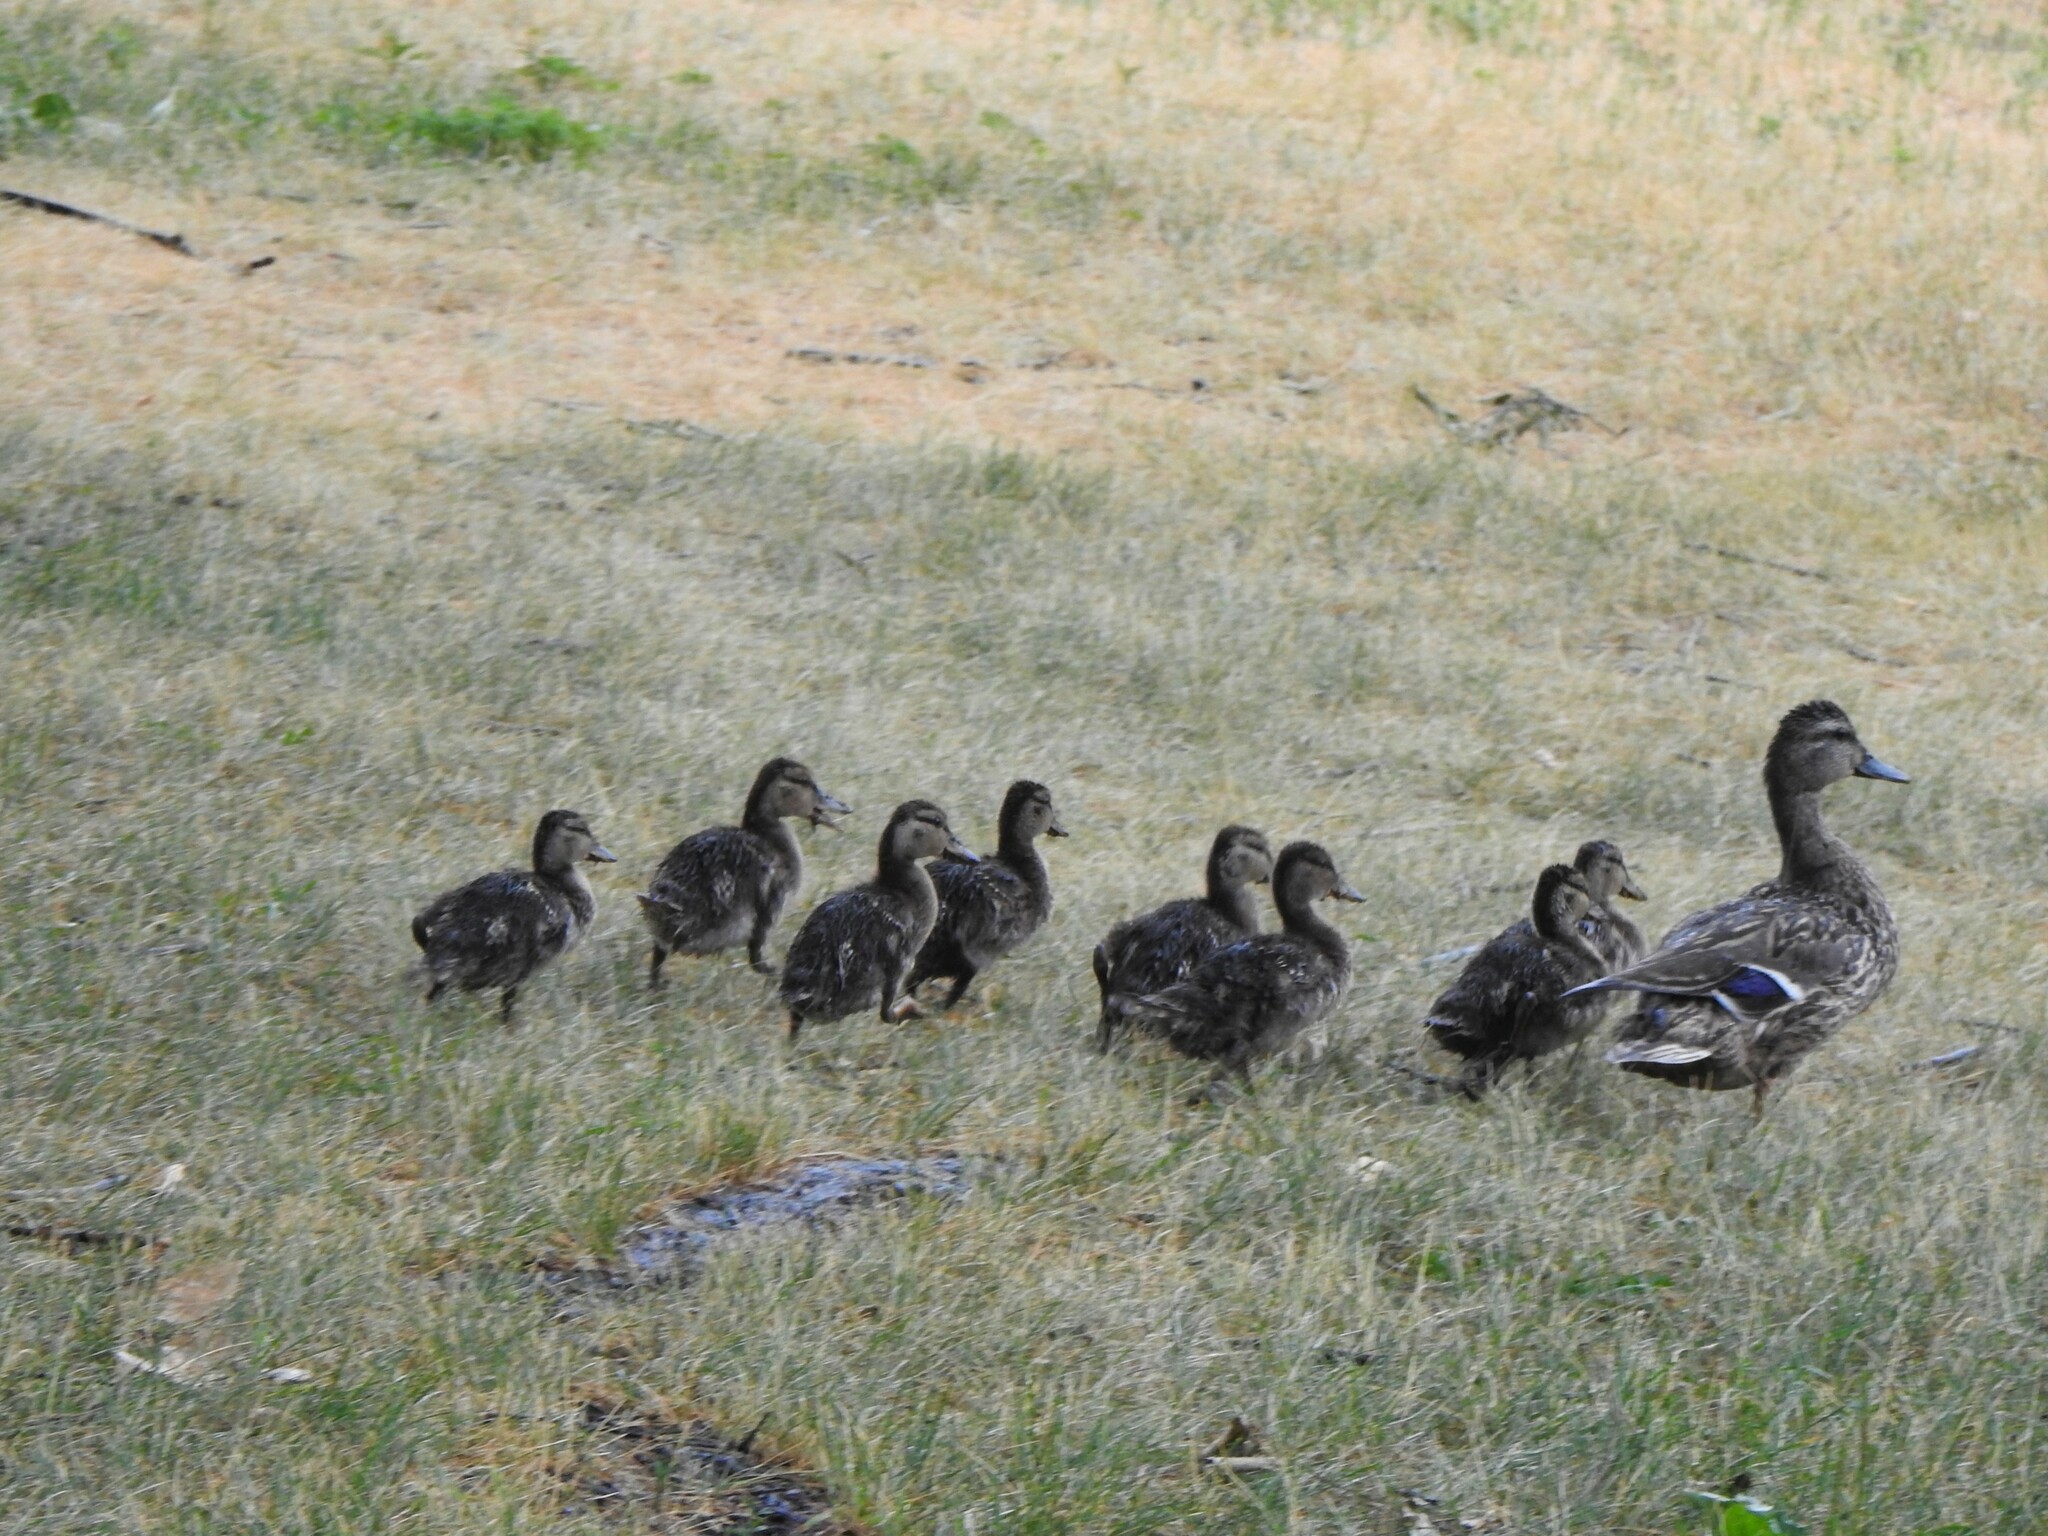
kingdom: Animalia
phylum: Chordata
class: Aves
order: Anseriformes
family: Anatidae
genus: Anas
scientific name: Anas platyrhynchos
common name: Mallard
